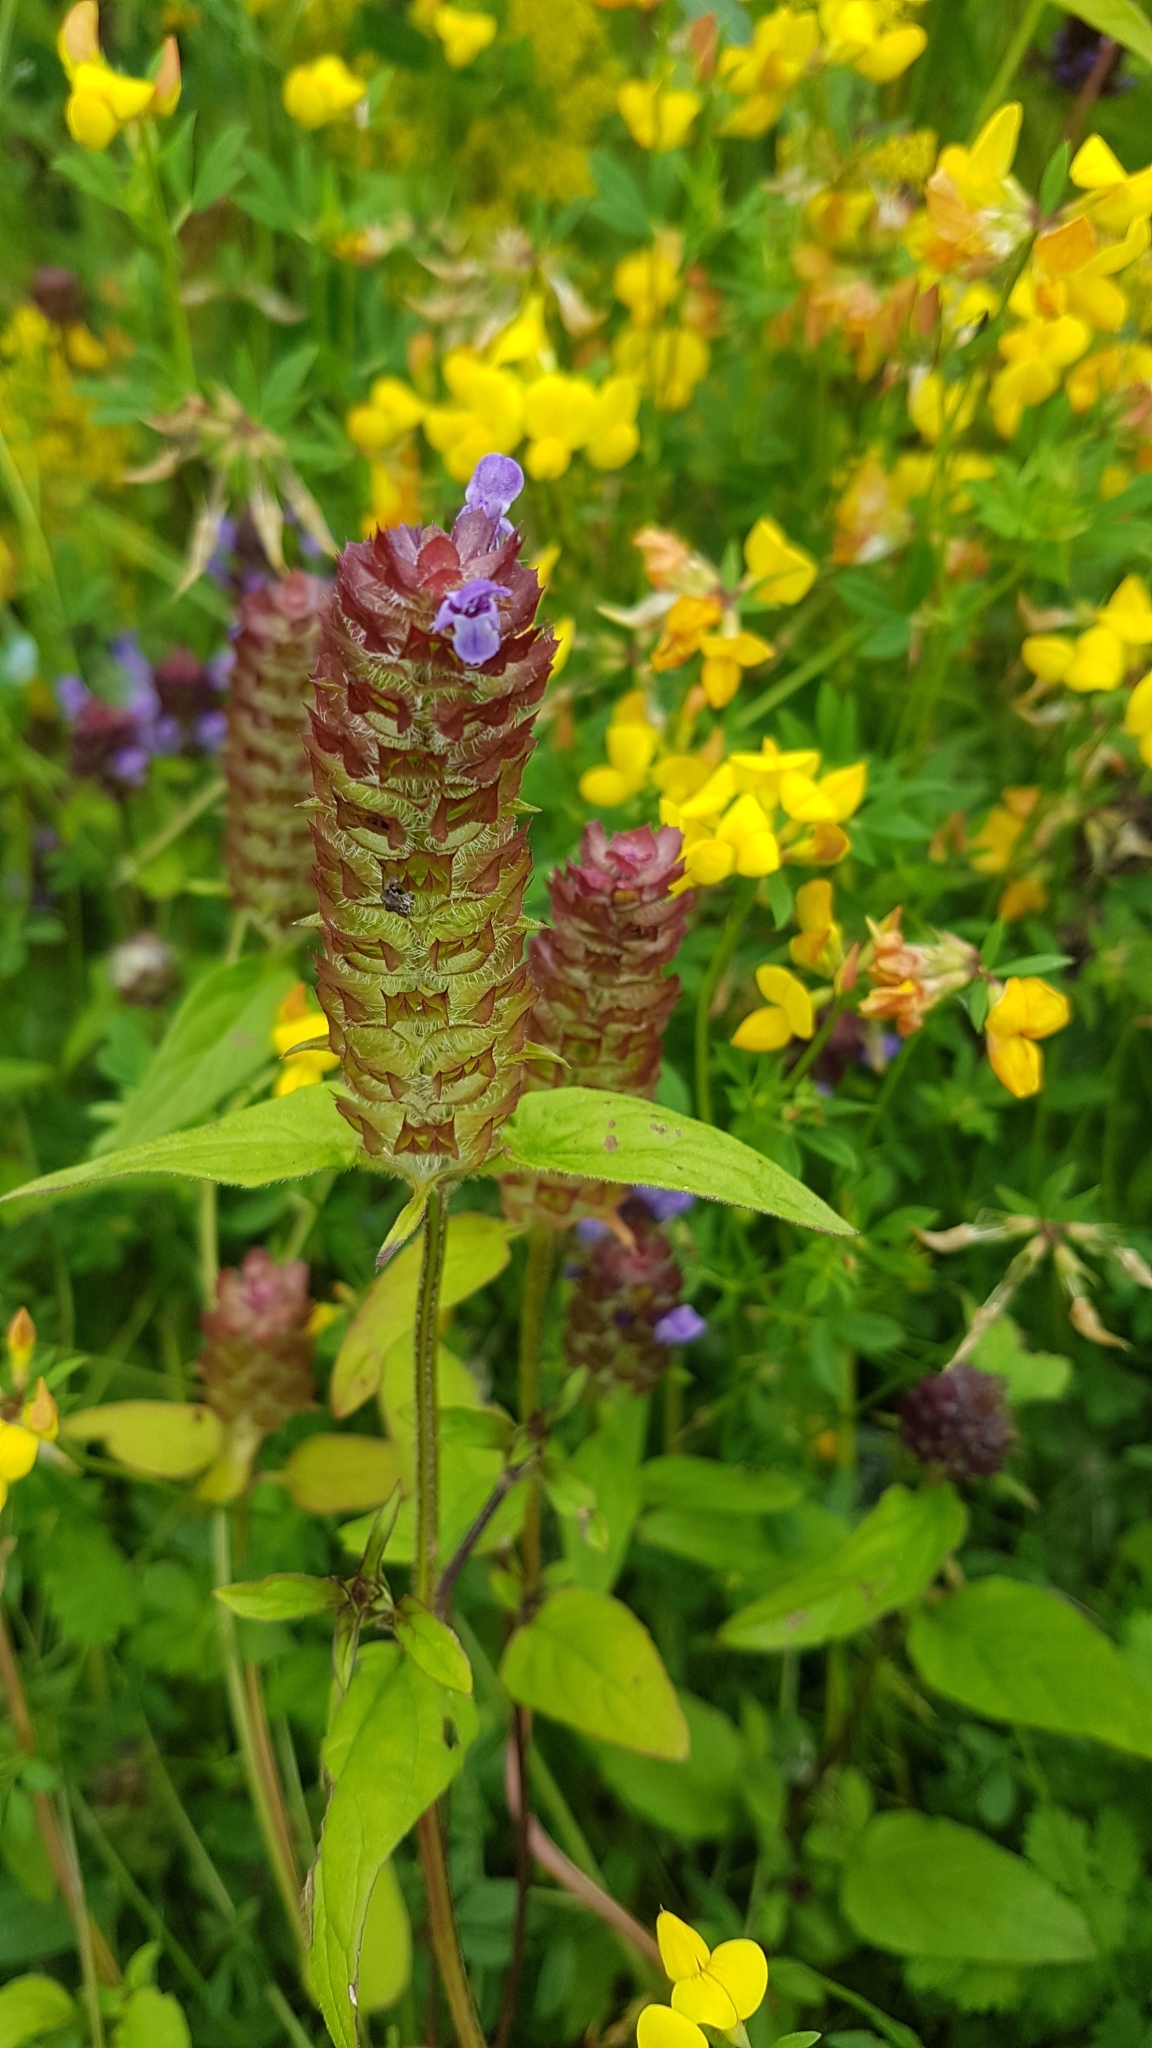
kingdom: Plantae
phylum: Tracheophyta
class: Magnoliopsida
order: Lamiales
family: Lamiaceae
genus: Prunella
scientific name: Prunella vulgaris
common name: Heal-all
